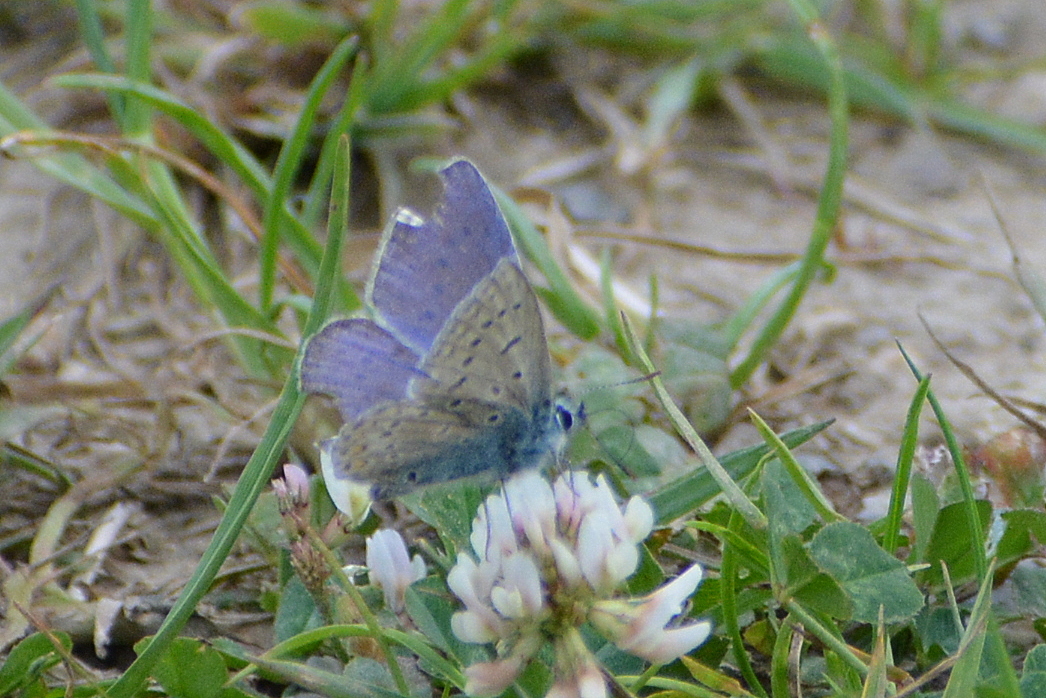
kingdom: Animalia
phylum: Arthropoda
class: Insecta
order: Lepidoptera
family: Lycaenidae
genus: Polyommatus
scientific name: Polyommatus icarus
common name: Common blue
